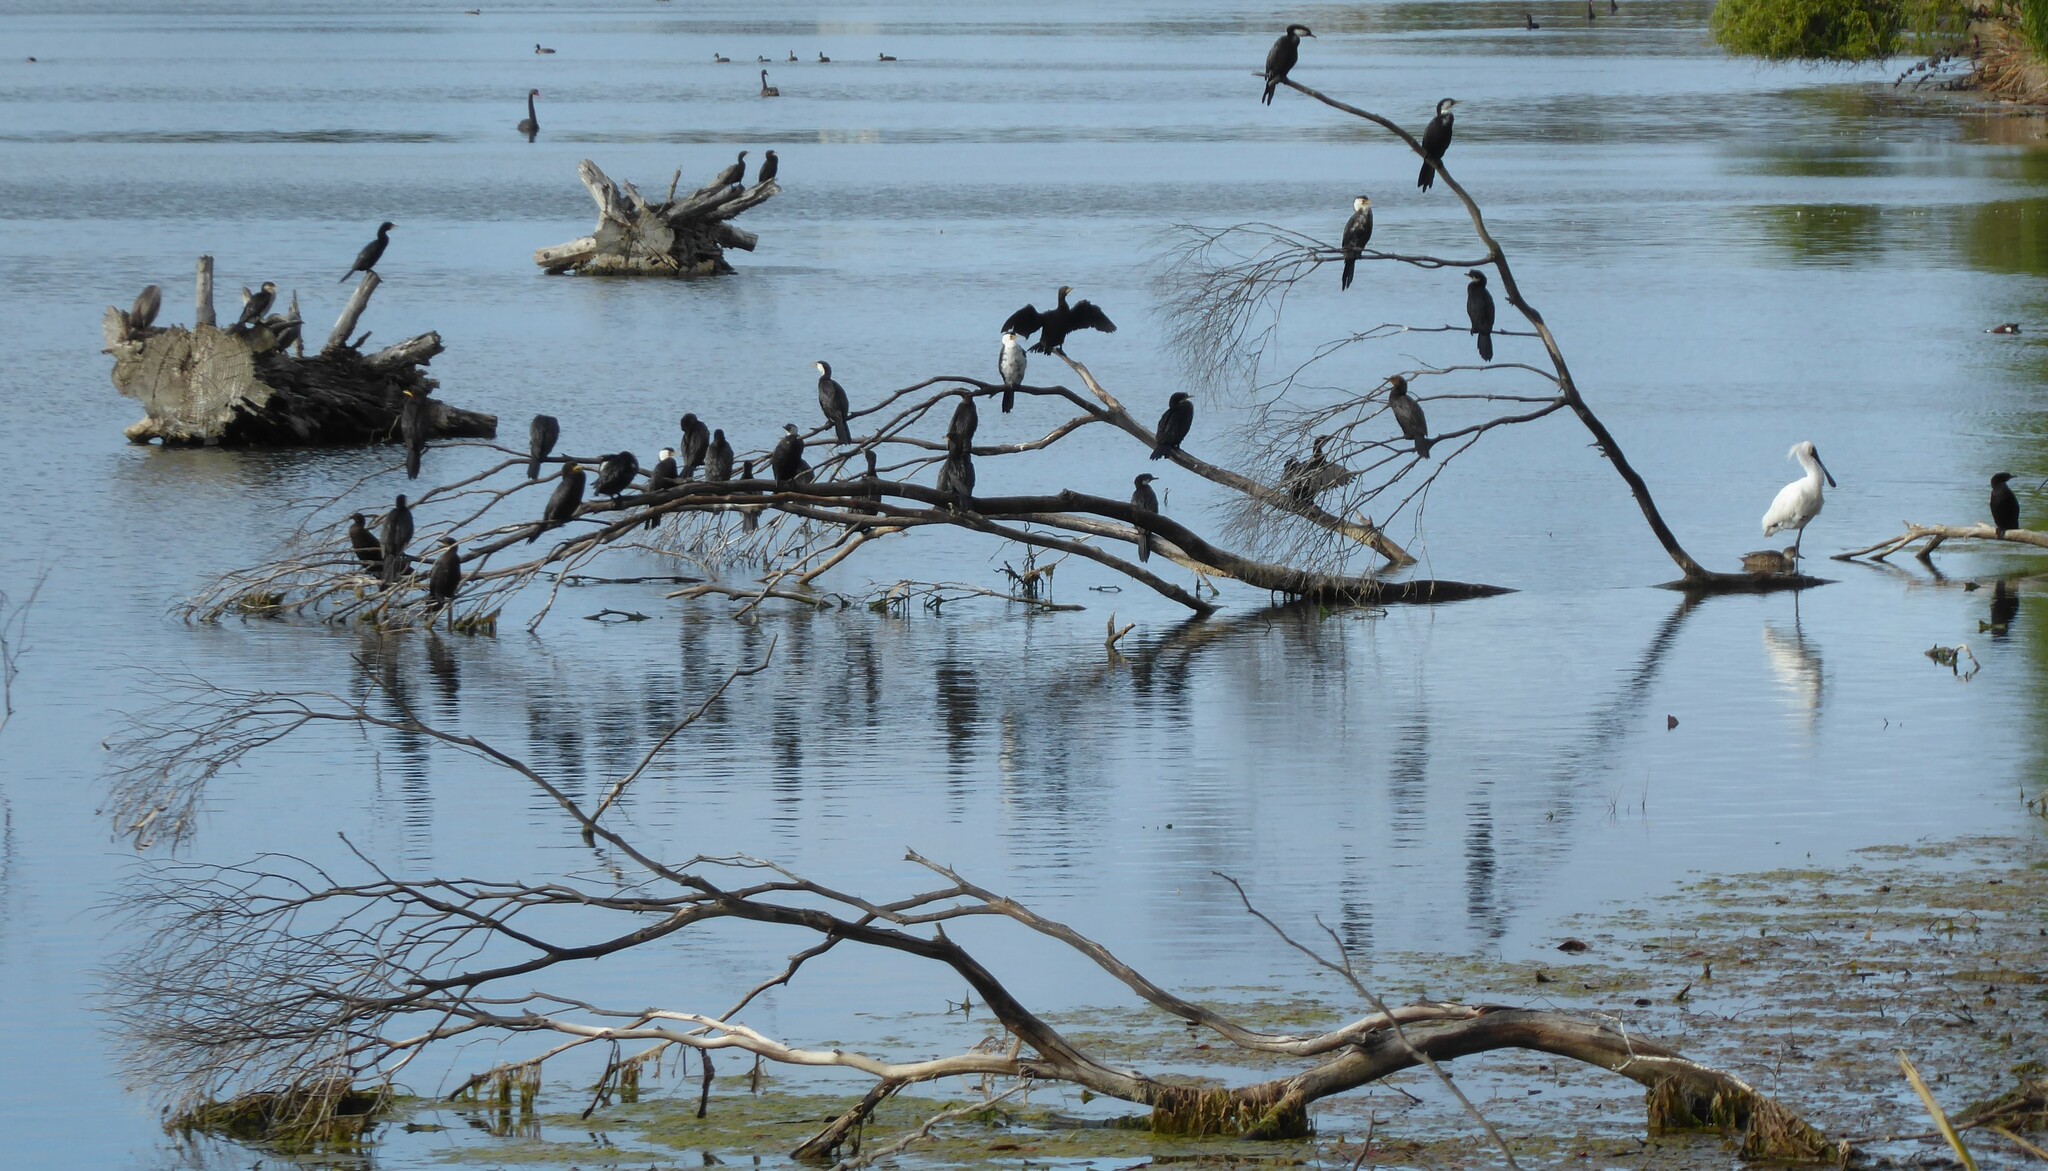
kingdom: Animalia
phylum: Chordata
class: Aves
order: Suliformes
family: Phalacrocoracidae
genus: Phalacrocorax
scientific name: Phalacrocorax sulcirostris
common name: Little black cormorant
